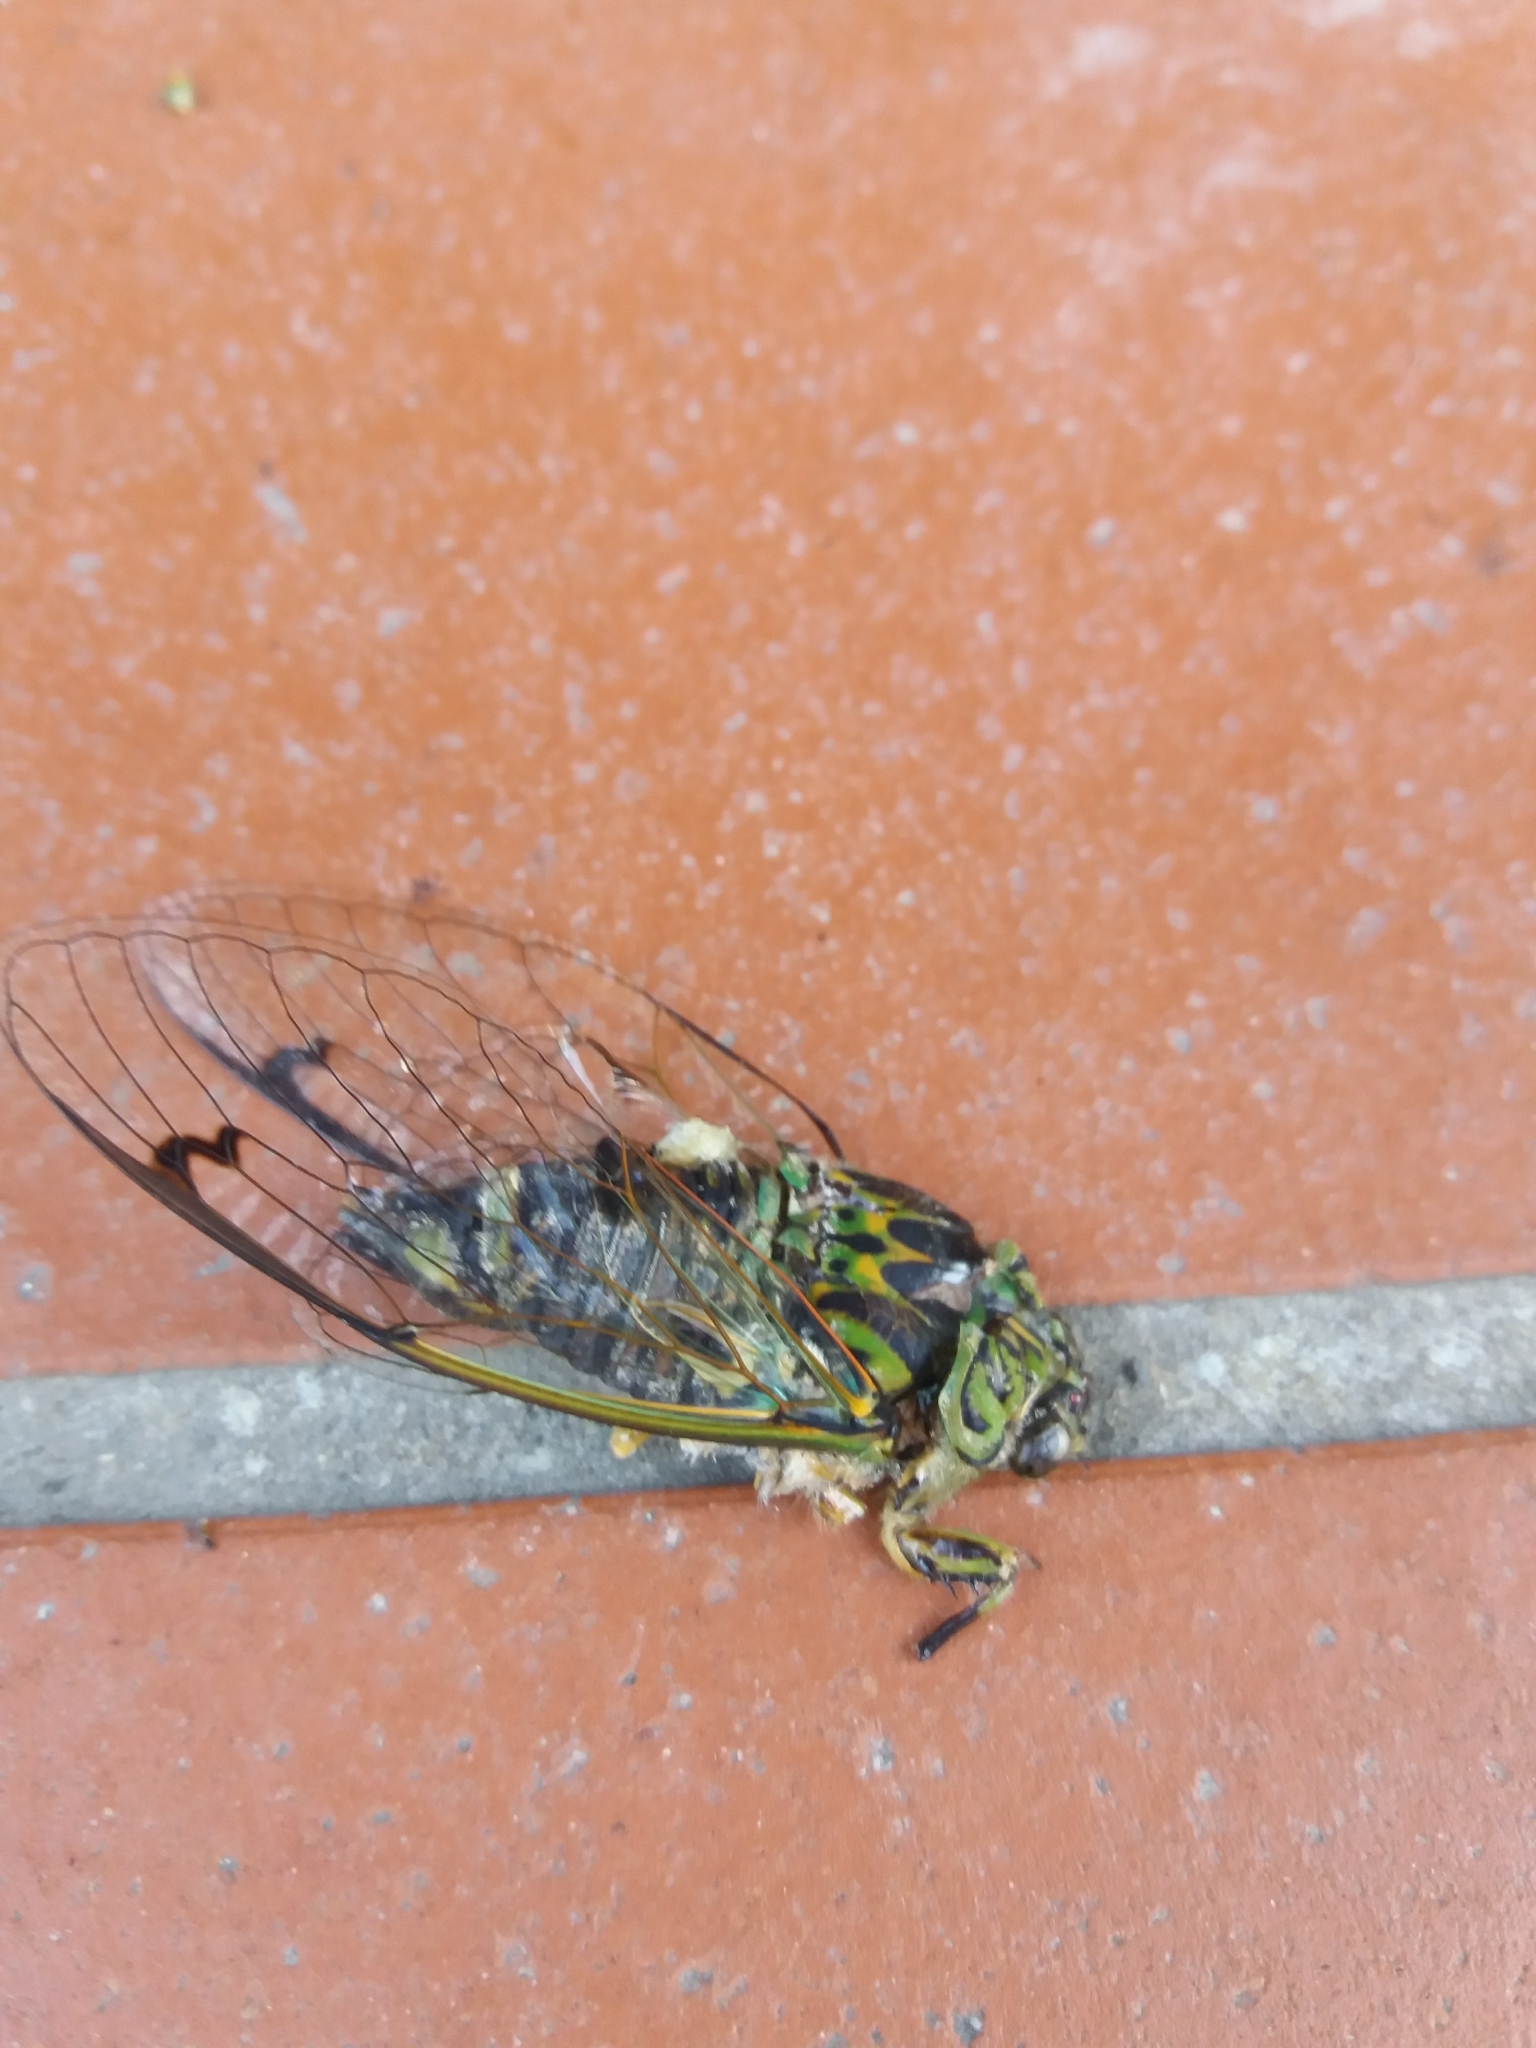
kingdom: Animalia
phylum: Arthropoda
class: Insecta
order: Hemiptera
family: Cicadidae
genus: Amphipsalta
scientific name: Amphipsalta zelandica
